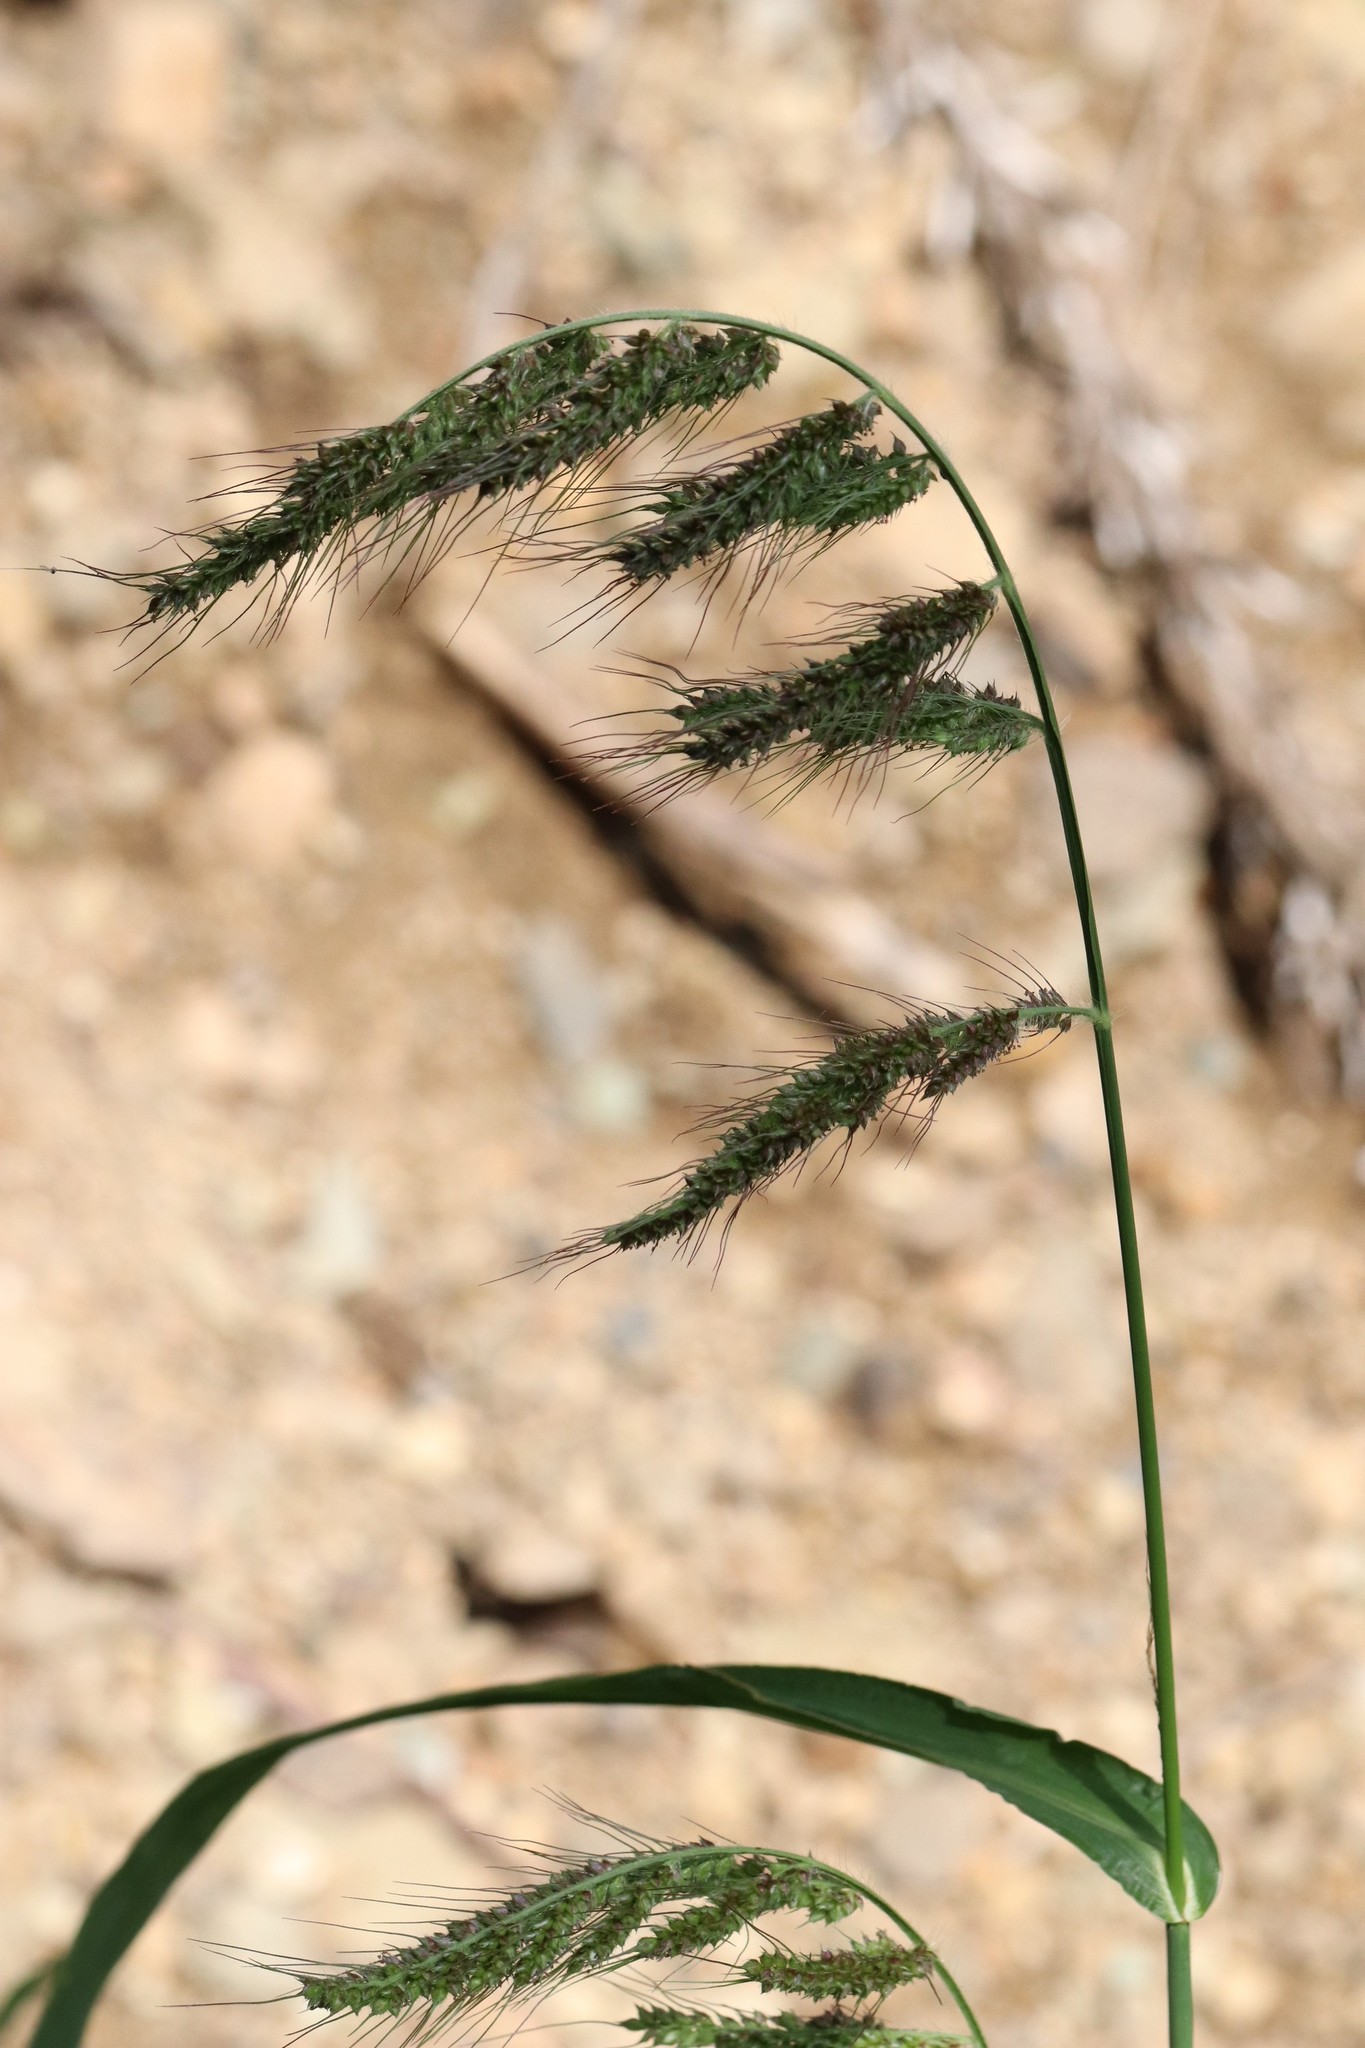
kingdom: Plantae
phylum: Tracheophyta
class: Liliopsida
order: Poales
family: Poaceae
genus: Echinochloa
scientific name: Echinochloa crus-galli
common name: Cockspur
